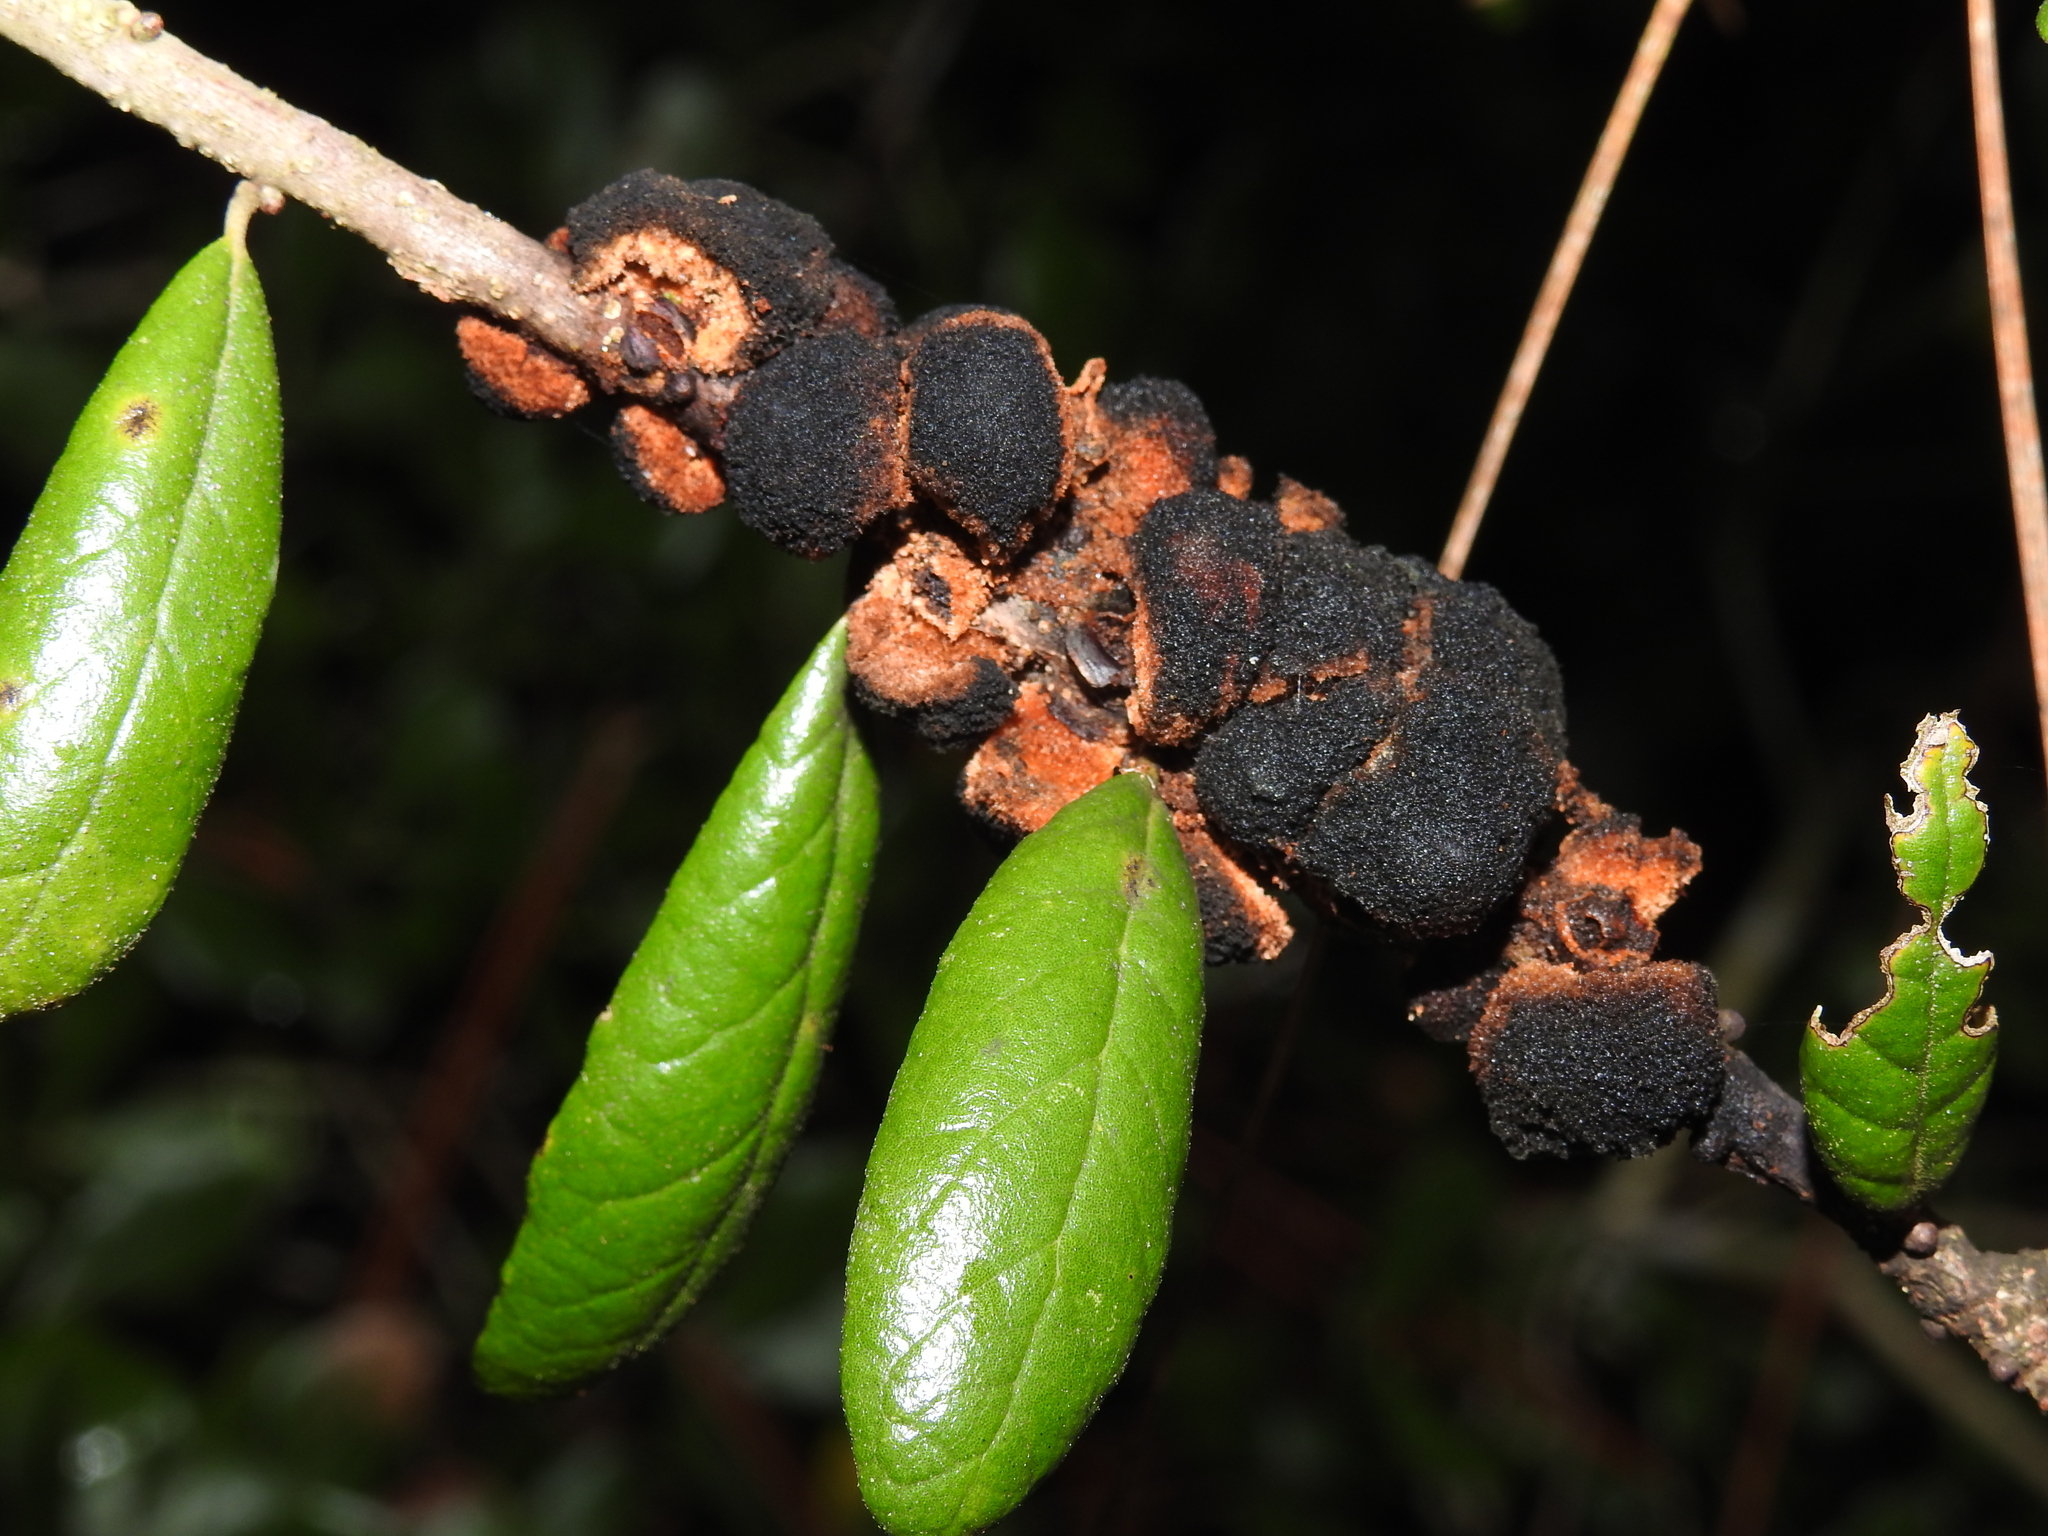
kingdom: Animalia
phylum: Arthropoda
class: Insecta
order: Hymenoptera
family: Cynipidae
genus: Disholcaspis
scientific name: Disholcaspis
